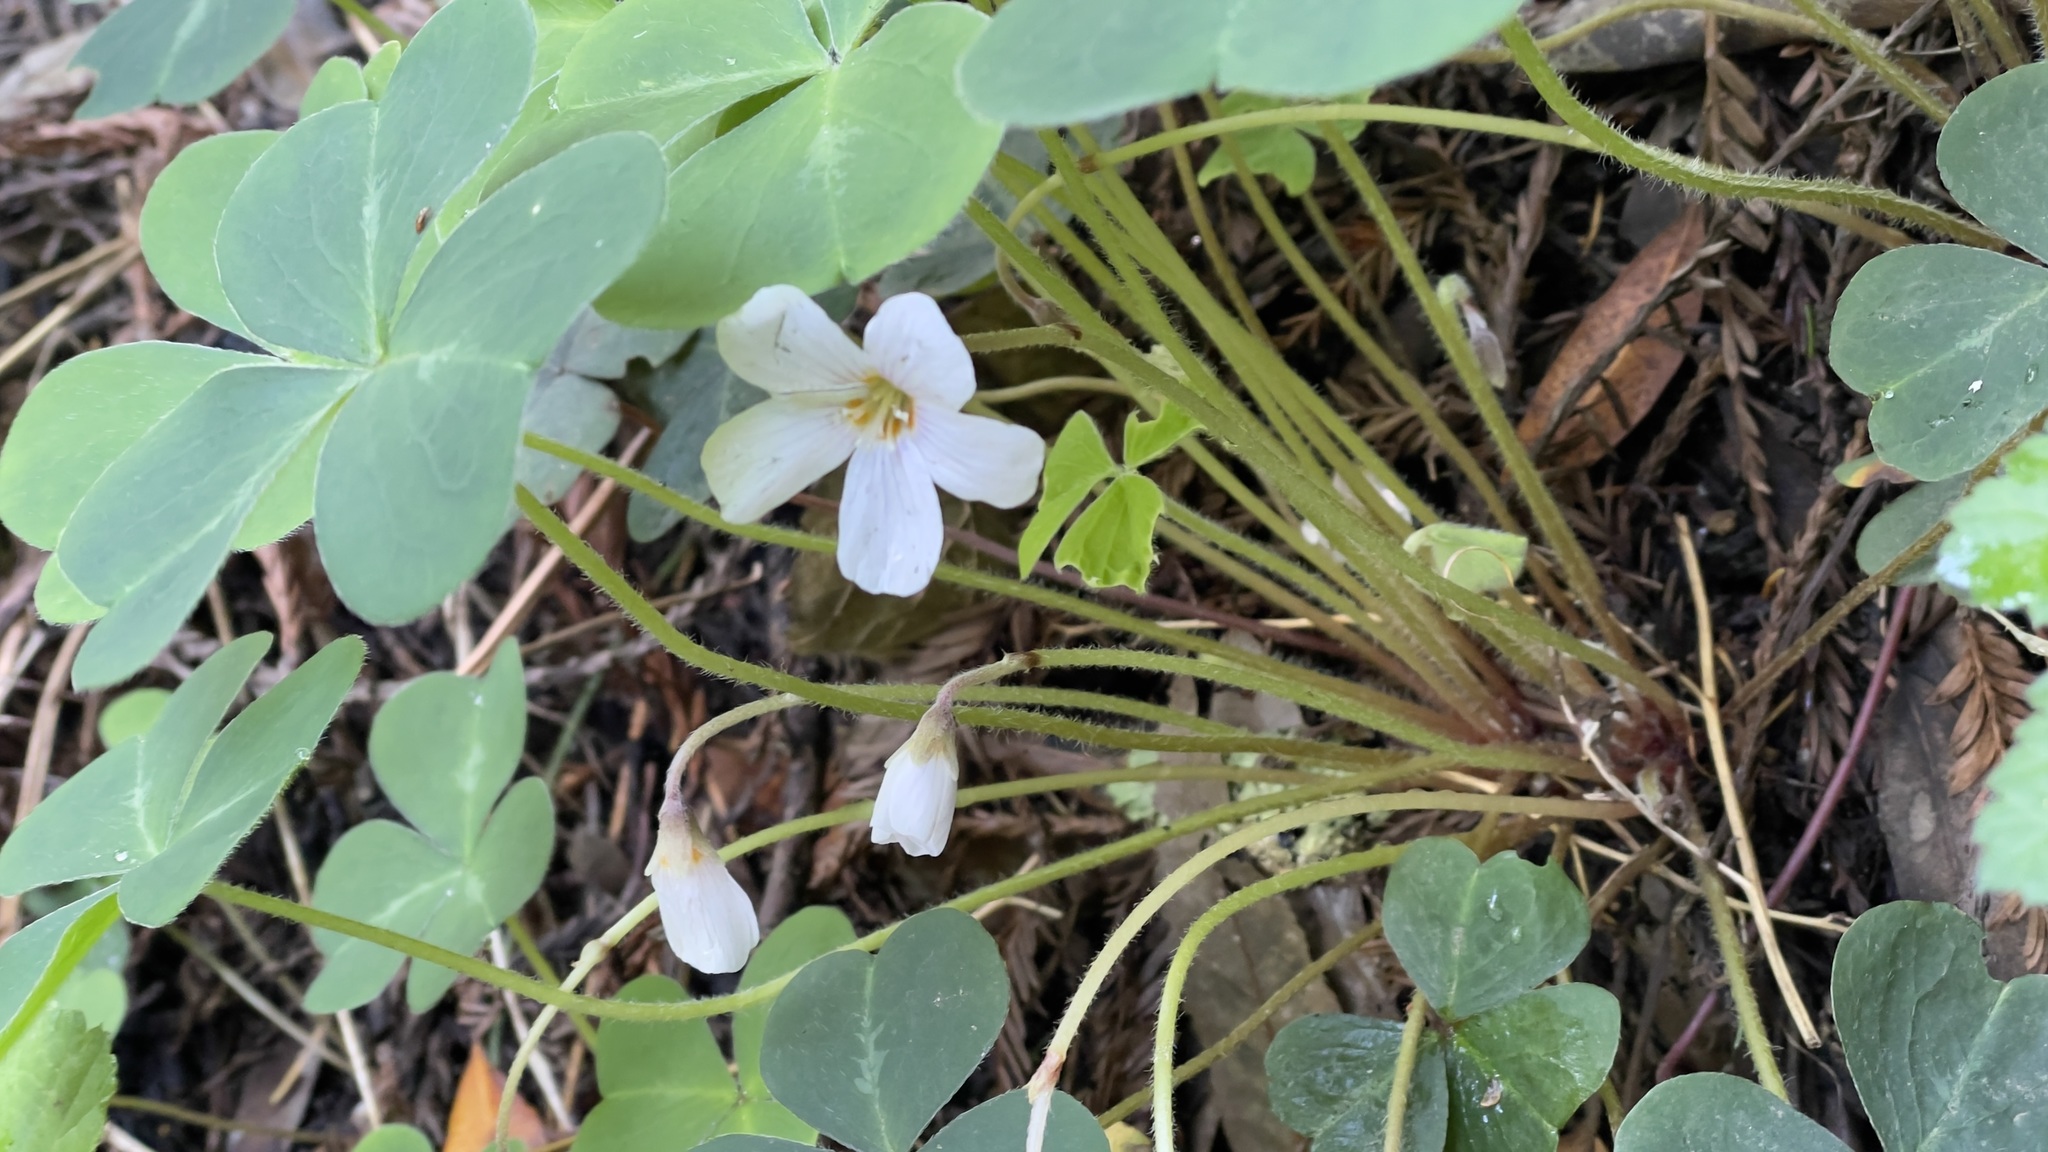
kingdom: Plantae
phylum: Tracheophyta
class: Magnoliopsida
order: Oxalidales
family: Oxalidaceae
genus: Oxalis
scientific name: Oxalis oregana
